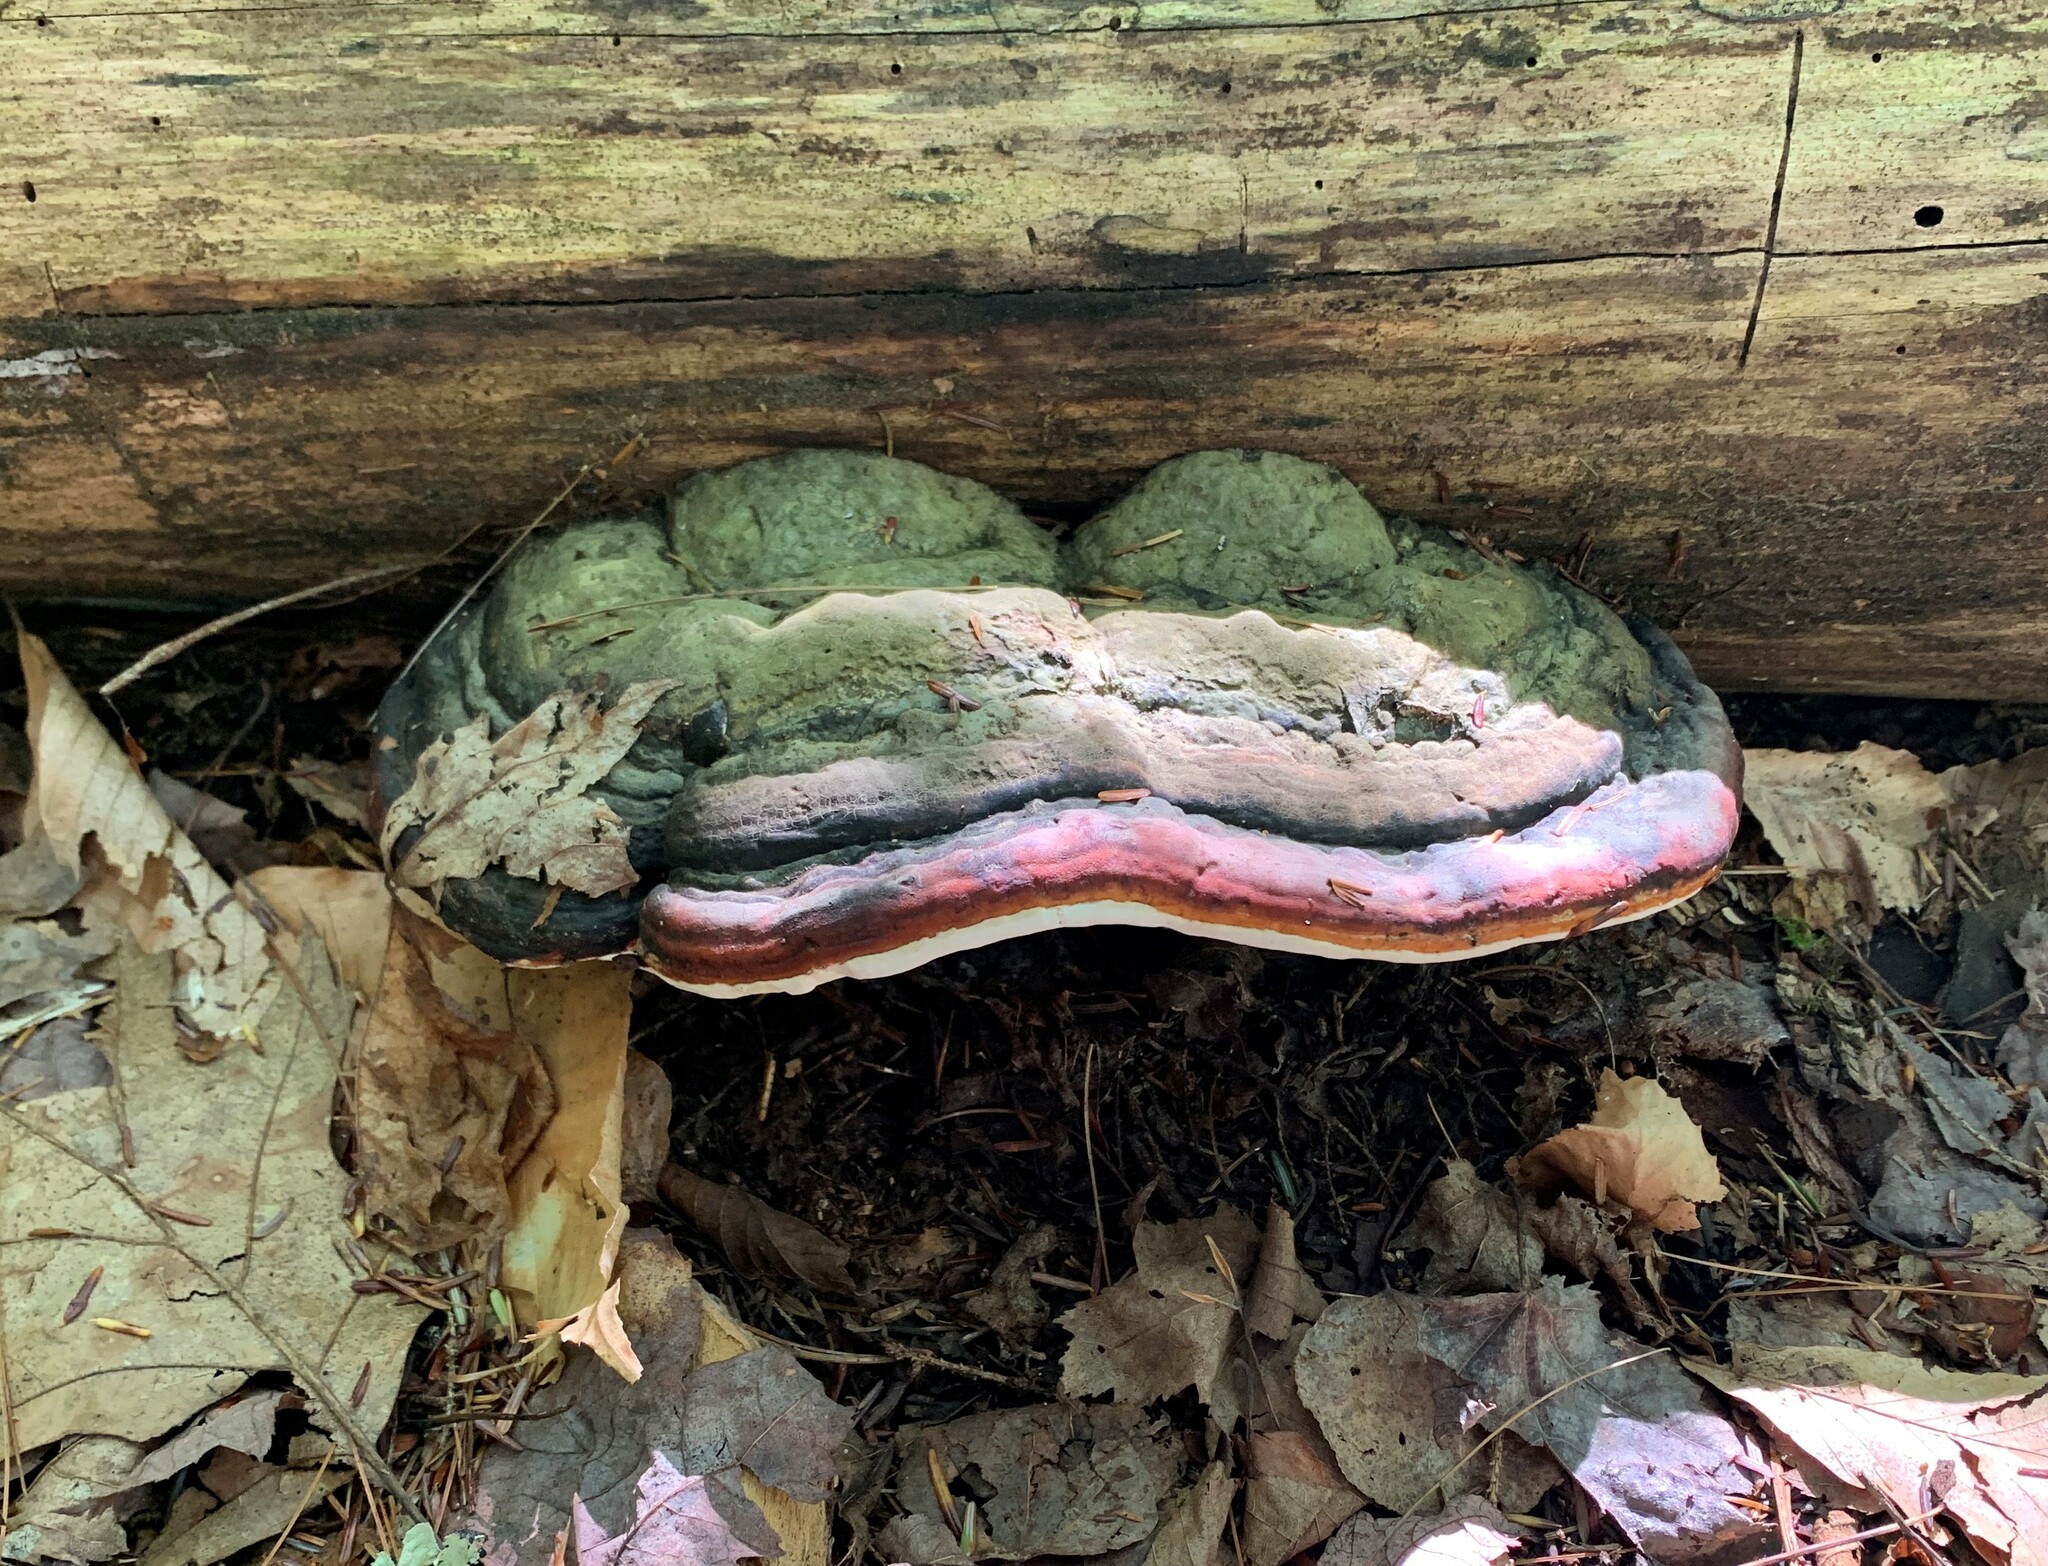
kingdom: Fungi
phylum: Basidiomycota
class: Agaricomycetes
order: Polyporales
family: Fomitopsidaceae
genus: Fomitopsis
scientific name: Fomitopsis mounceae
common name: Northern red belt
